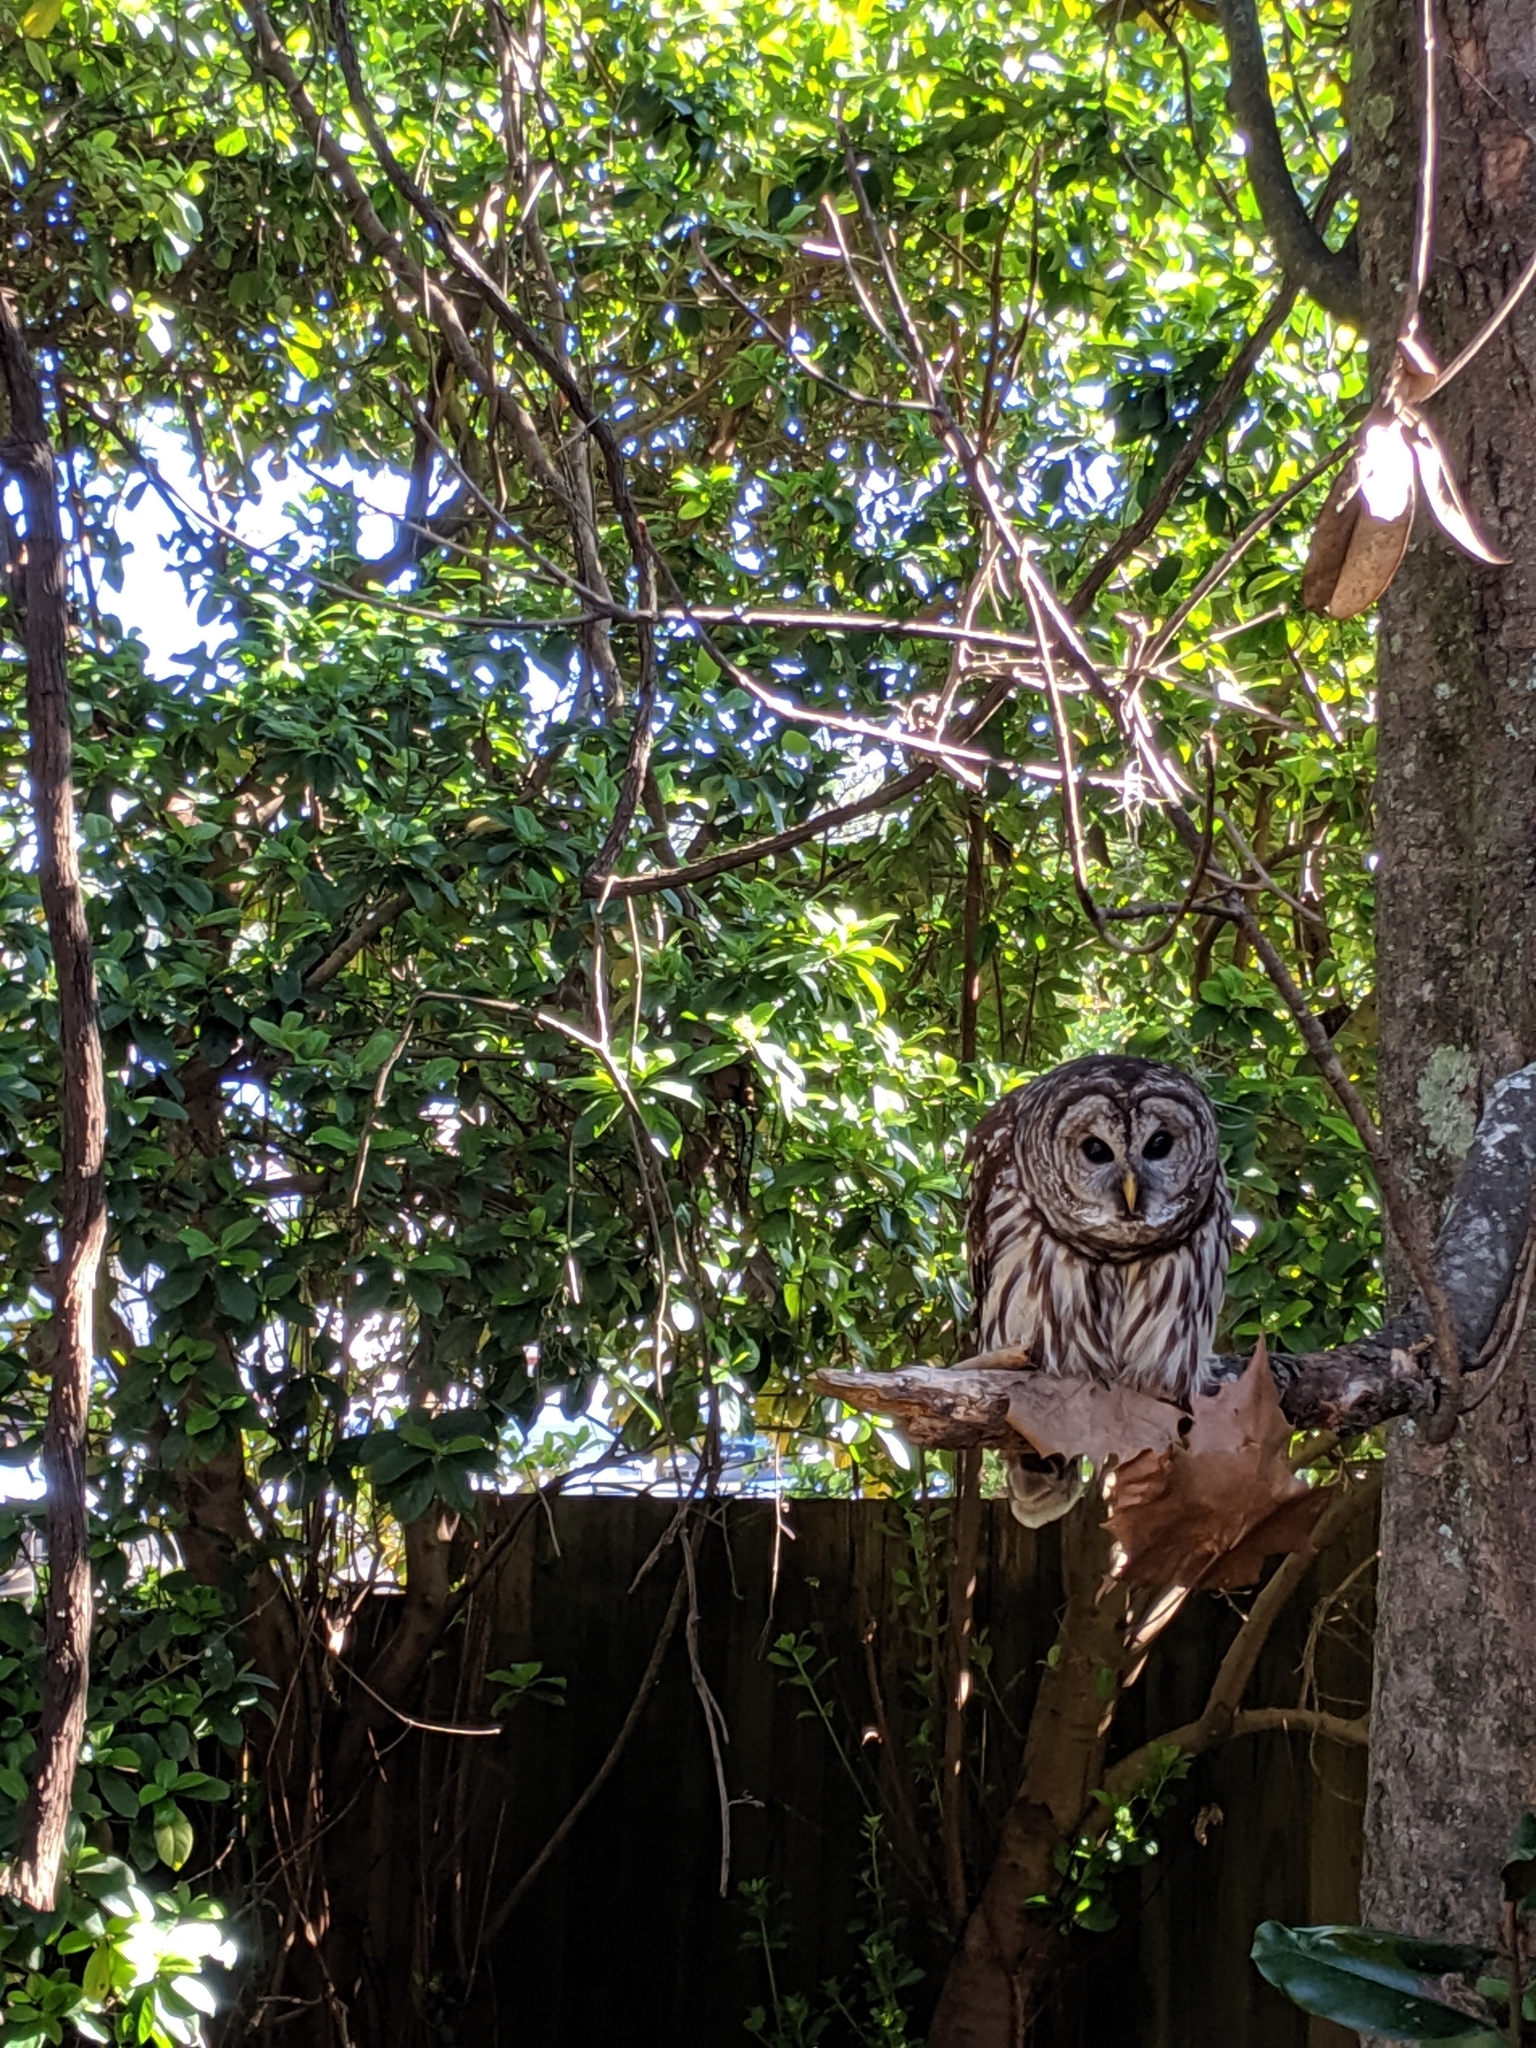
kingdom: Animalia
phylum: Chordata
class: Aves
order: Strigiformes
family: Strigidae
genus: Strix
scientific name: Strix varia
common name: Barred owl
